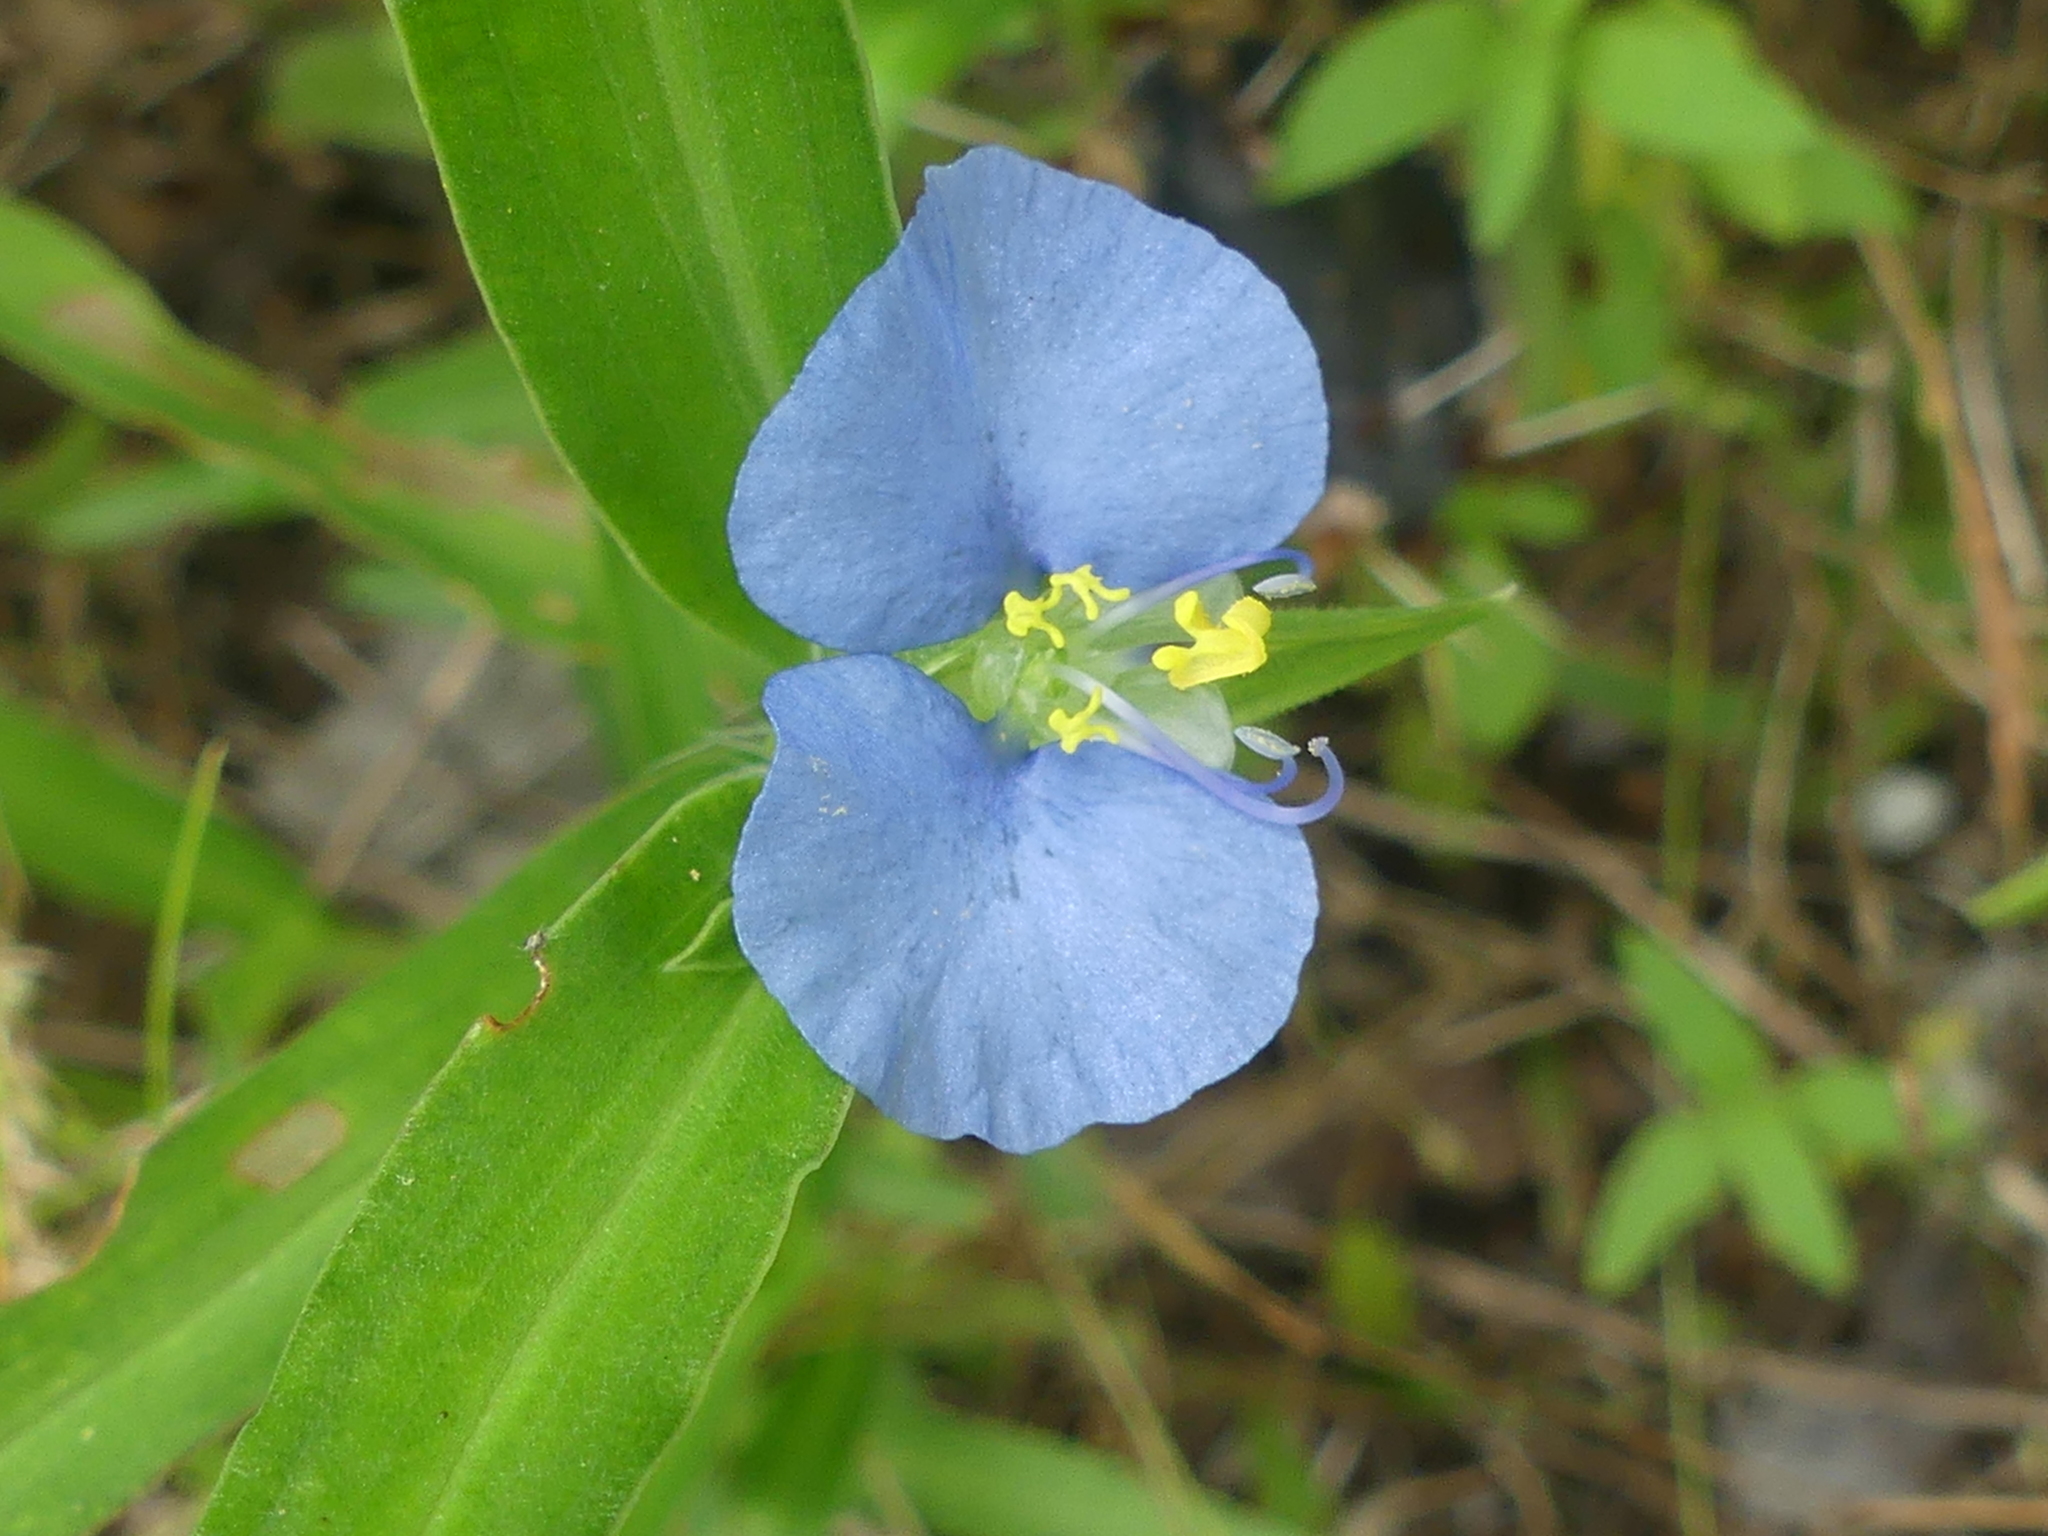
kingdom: Plantae
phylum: Tracheophyta
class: Liliopsida
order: Commelinales
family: Commelinaceae
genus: Commelina
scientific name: Commelina erecta
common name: Blousel blommetjie
